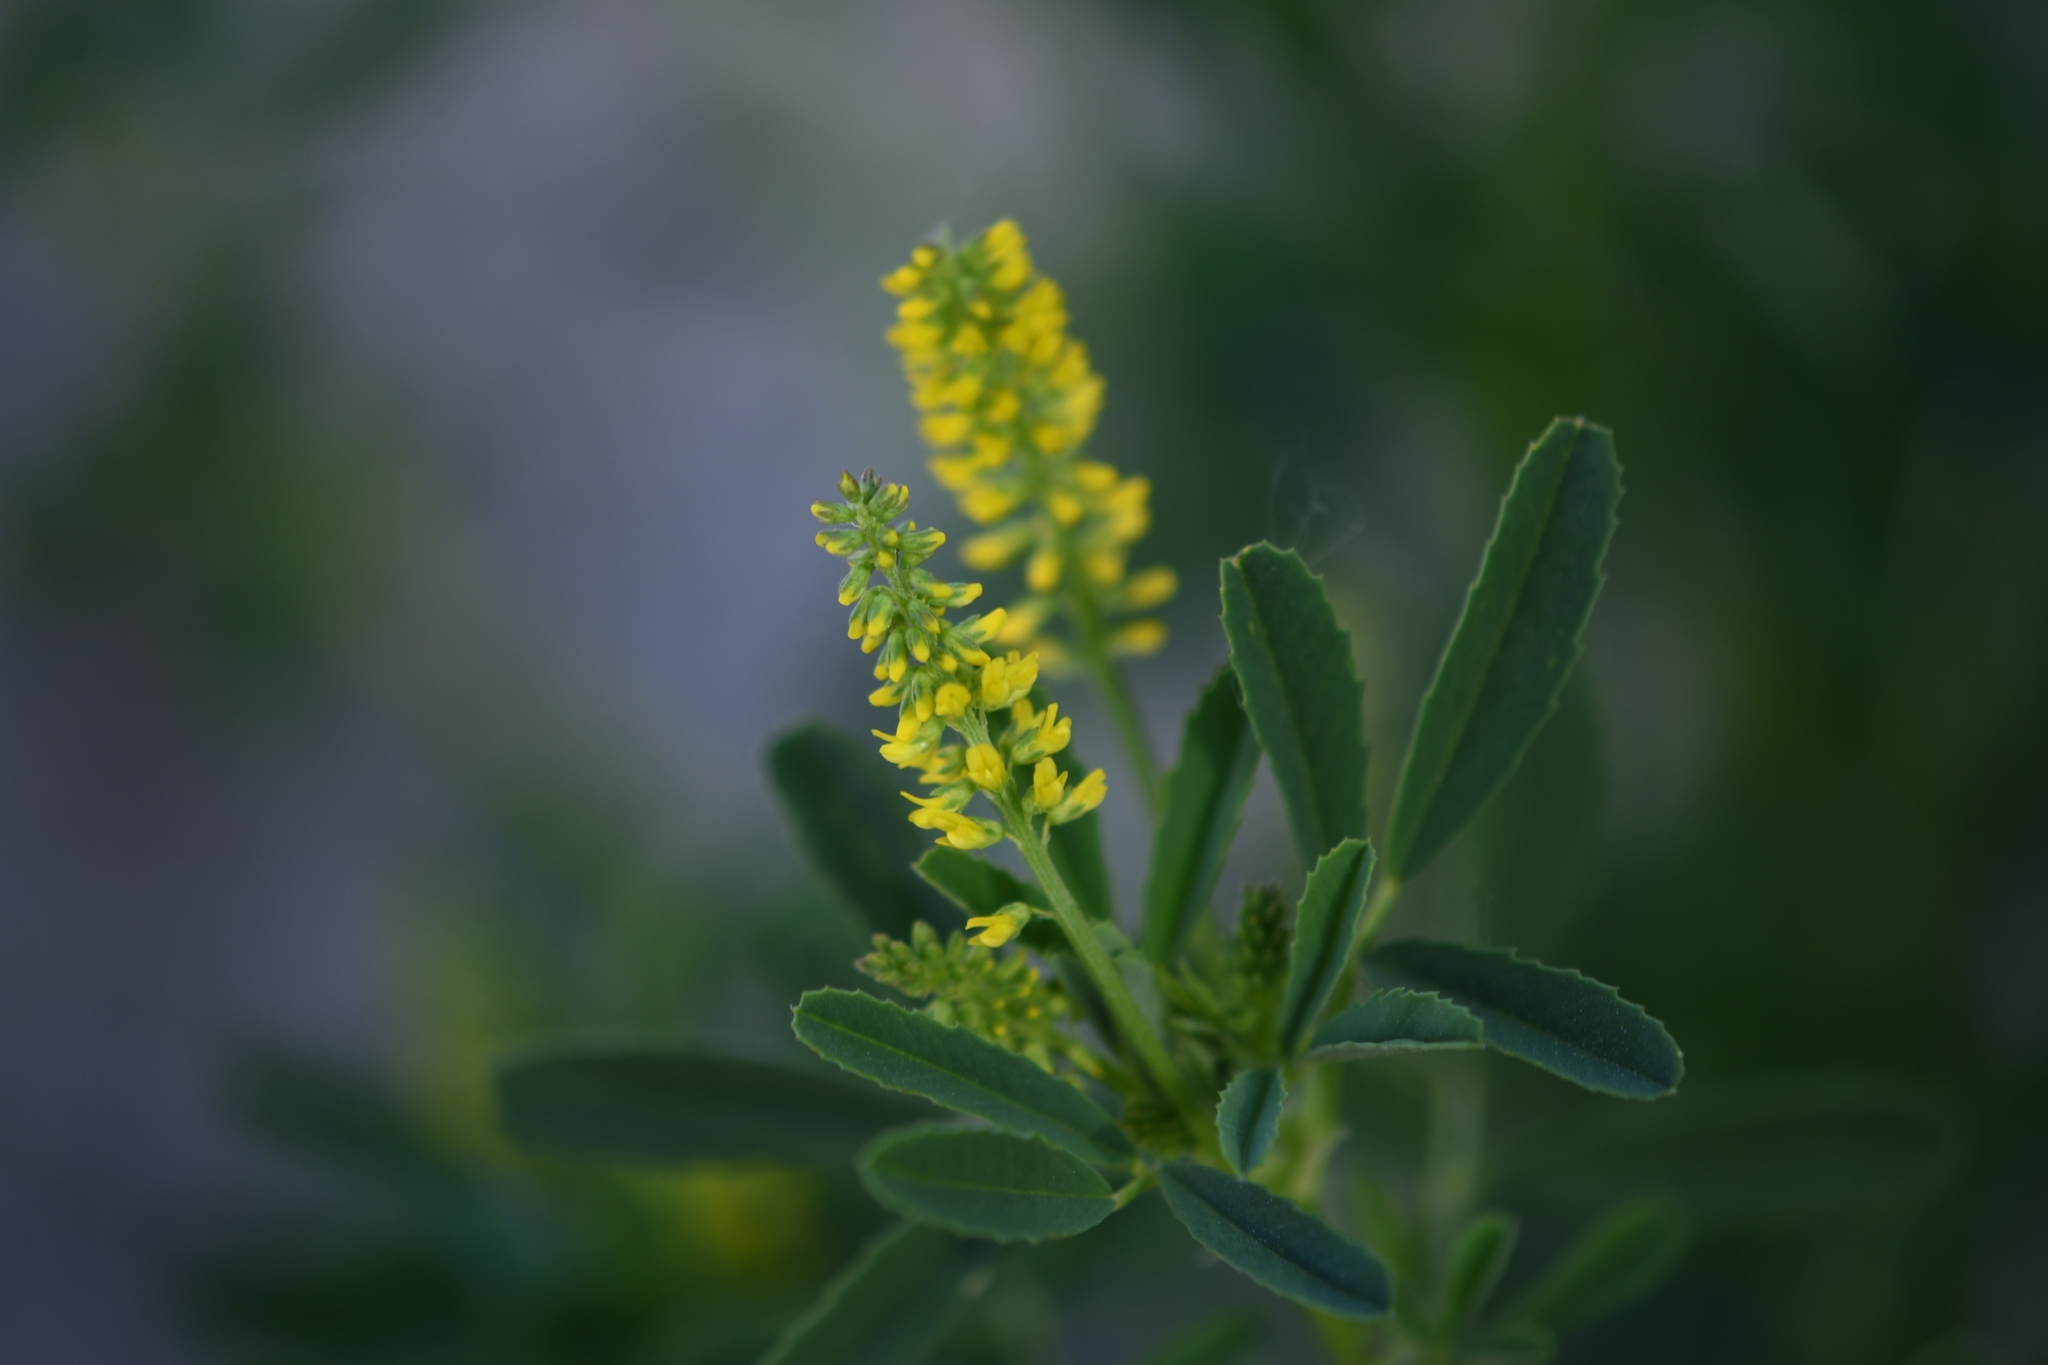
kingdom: Plantae
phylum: Tracheophyta
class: Magnoliopsida
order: Fabales
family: Fabaceae
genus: Melilotus
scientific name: Melilotus indicus
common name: Small melilot
